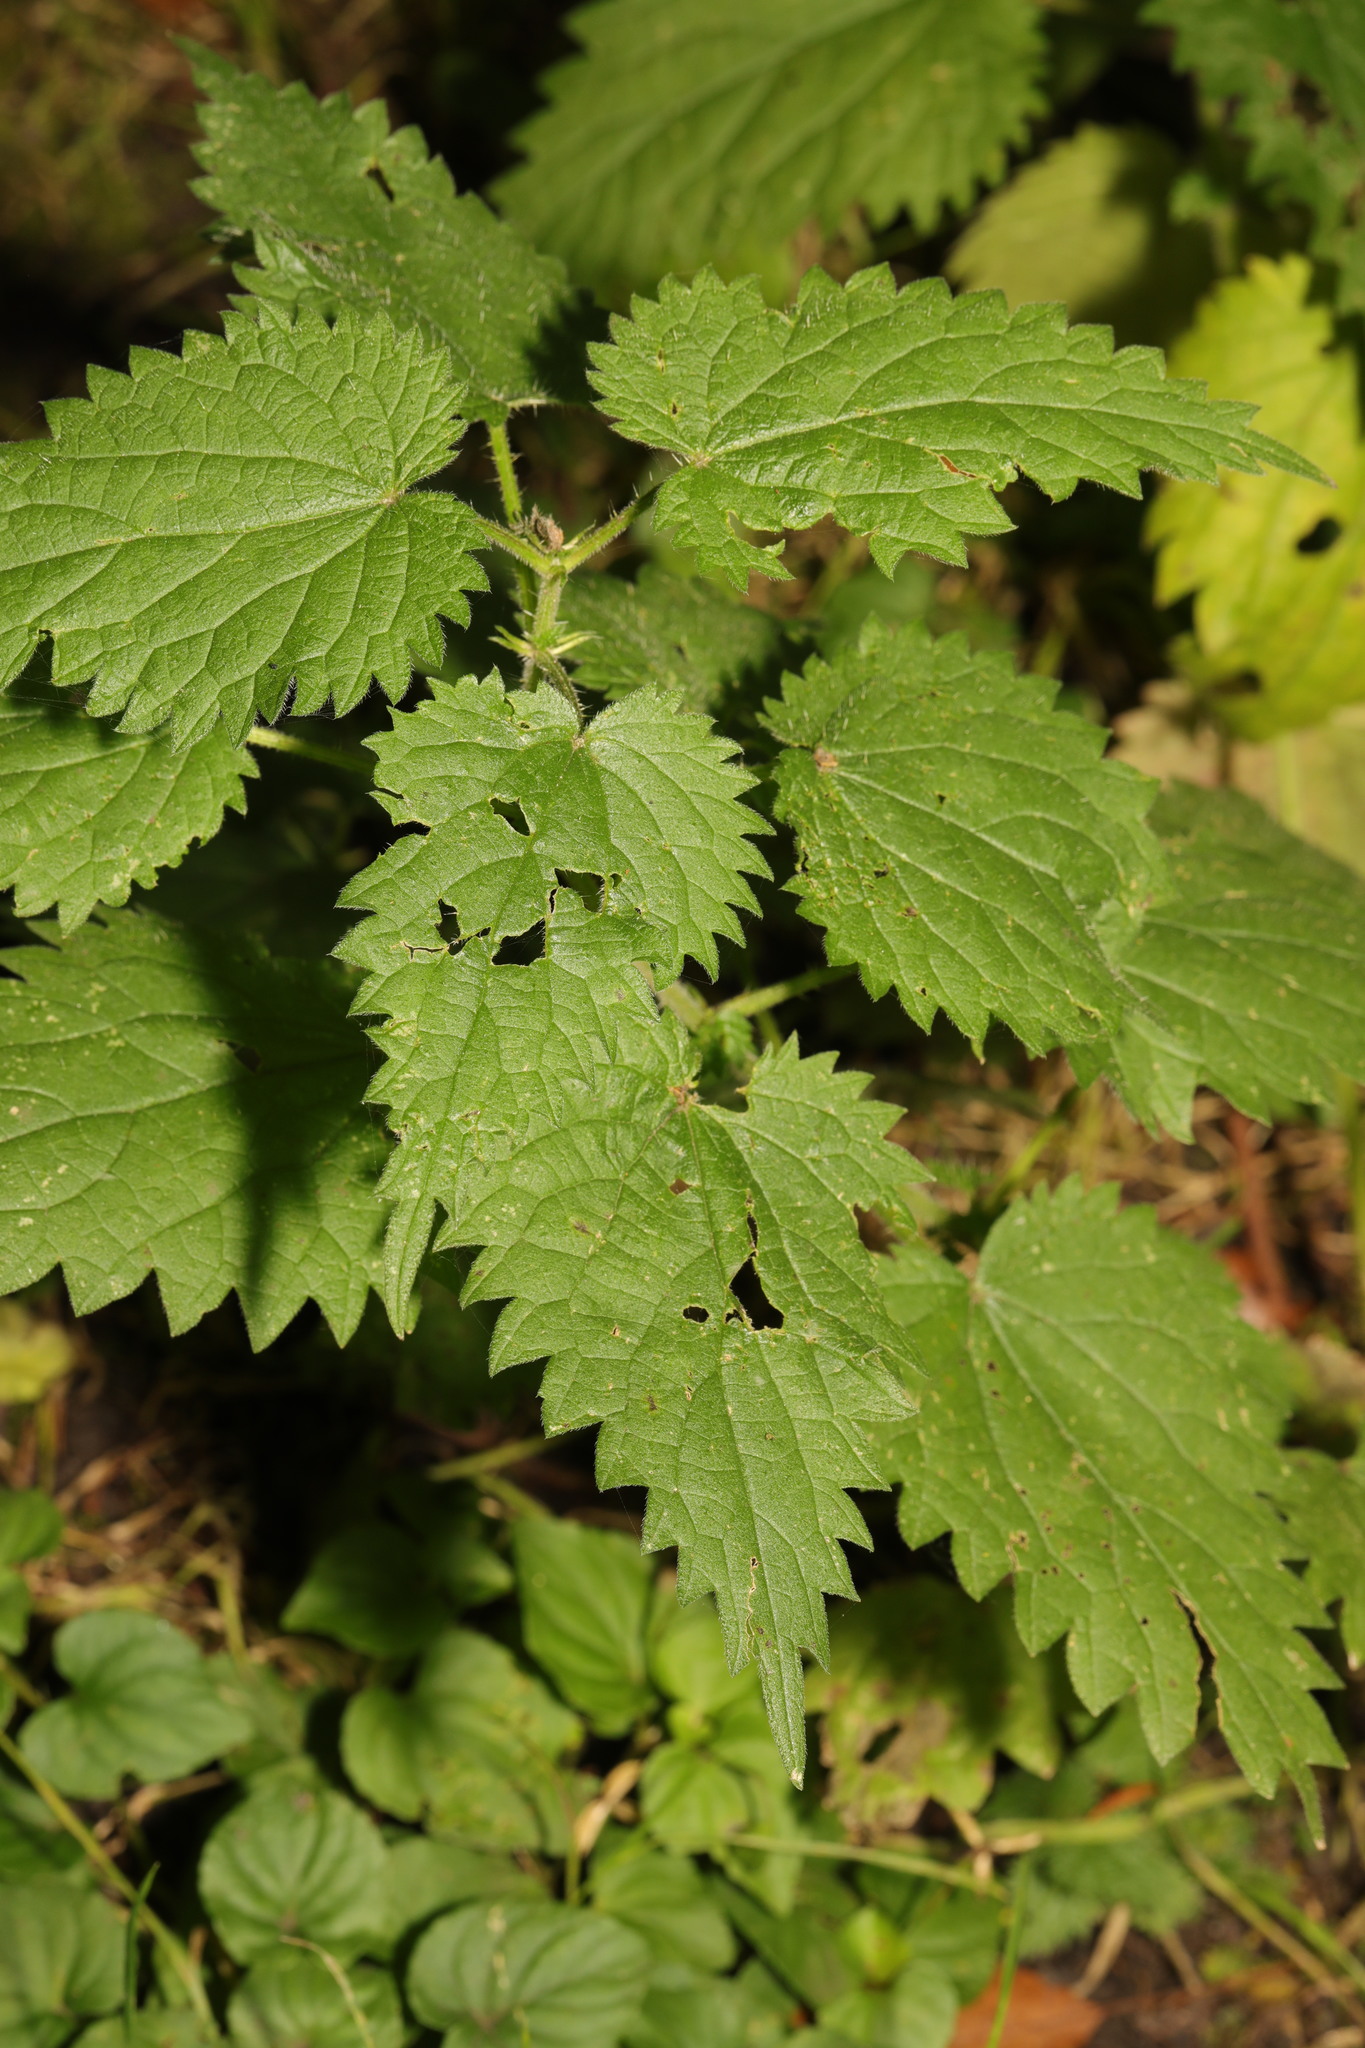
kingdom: Plantae
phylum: Tracheophyta
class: Magnoliopsida
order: Rosales
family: Urticaceae
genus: Urtica
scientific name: Urtica dioica
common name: Common nettle
